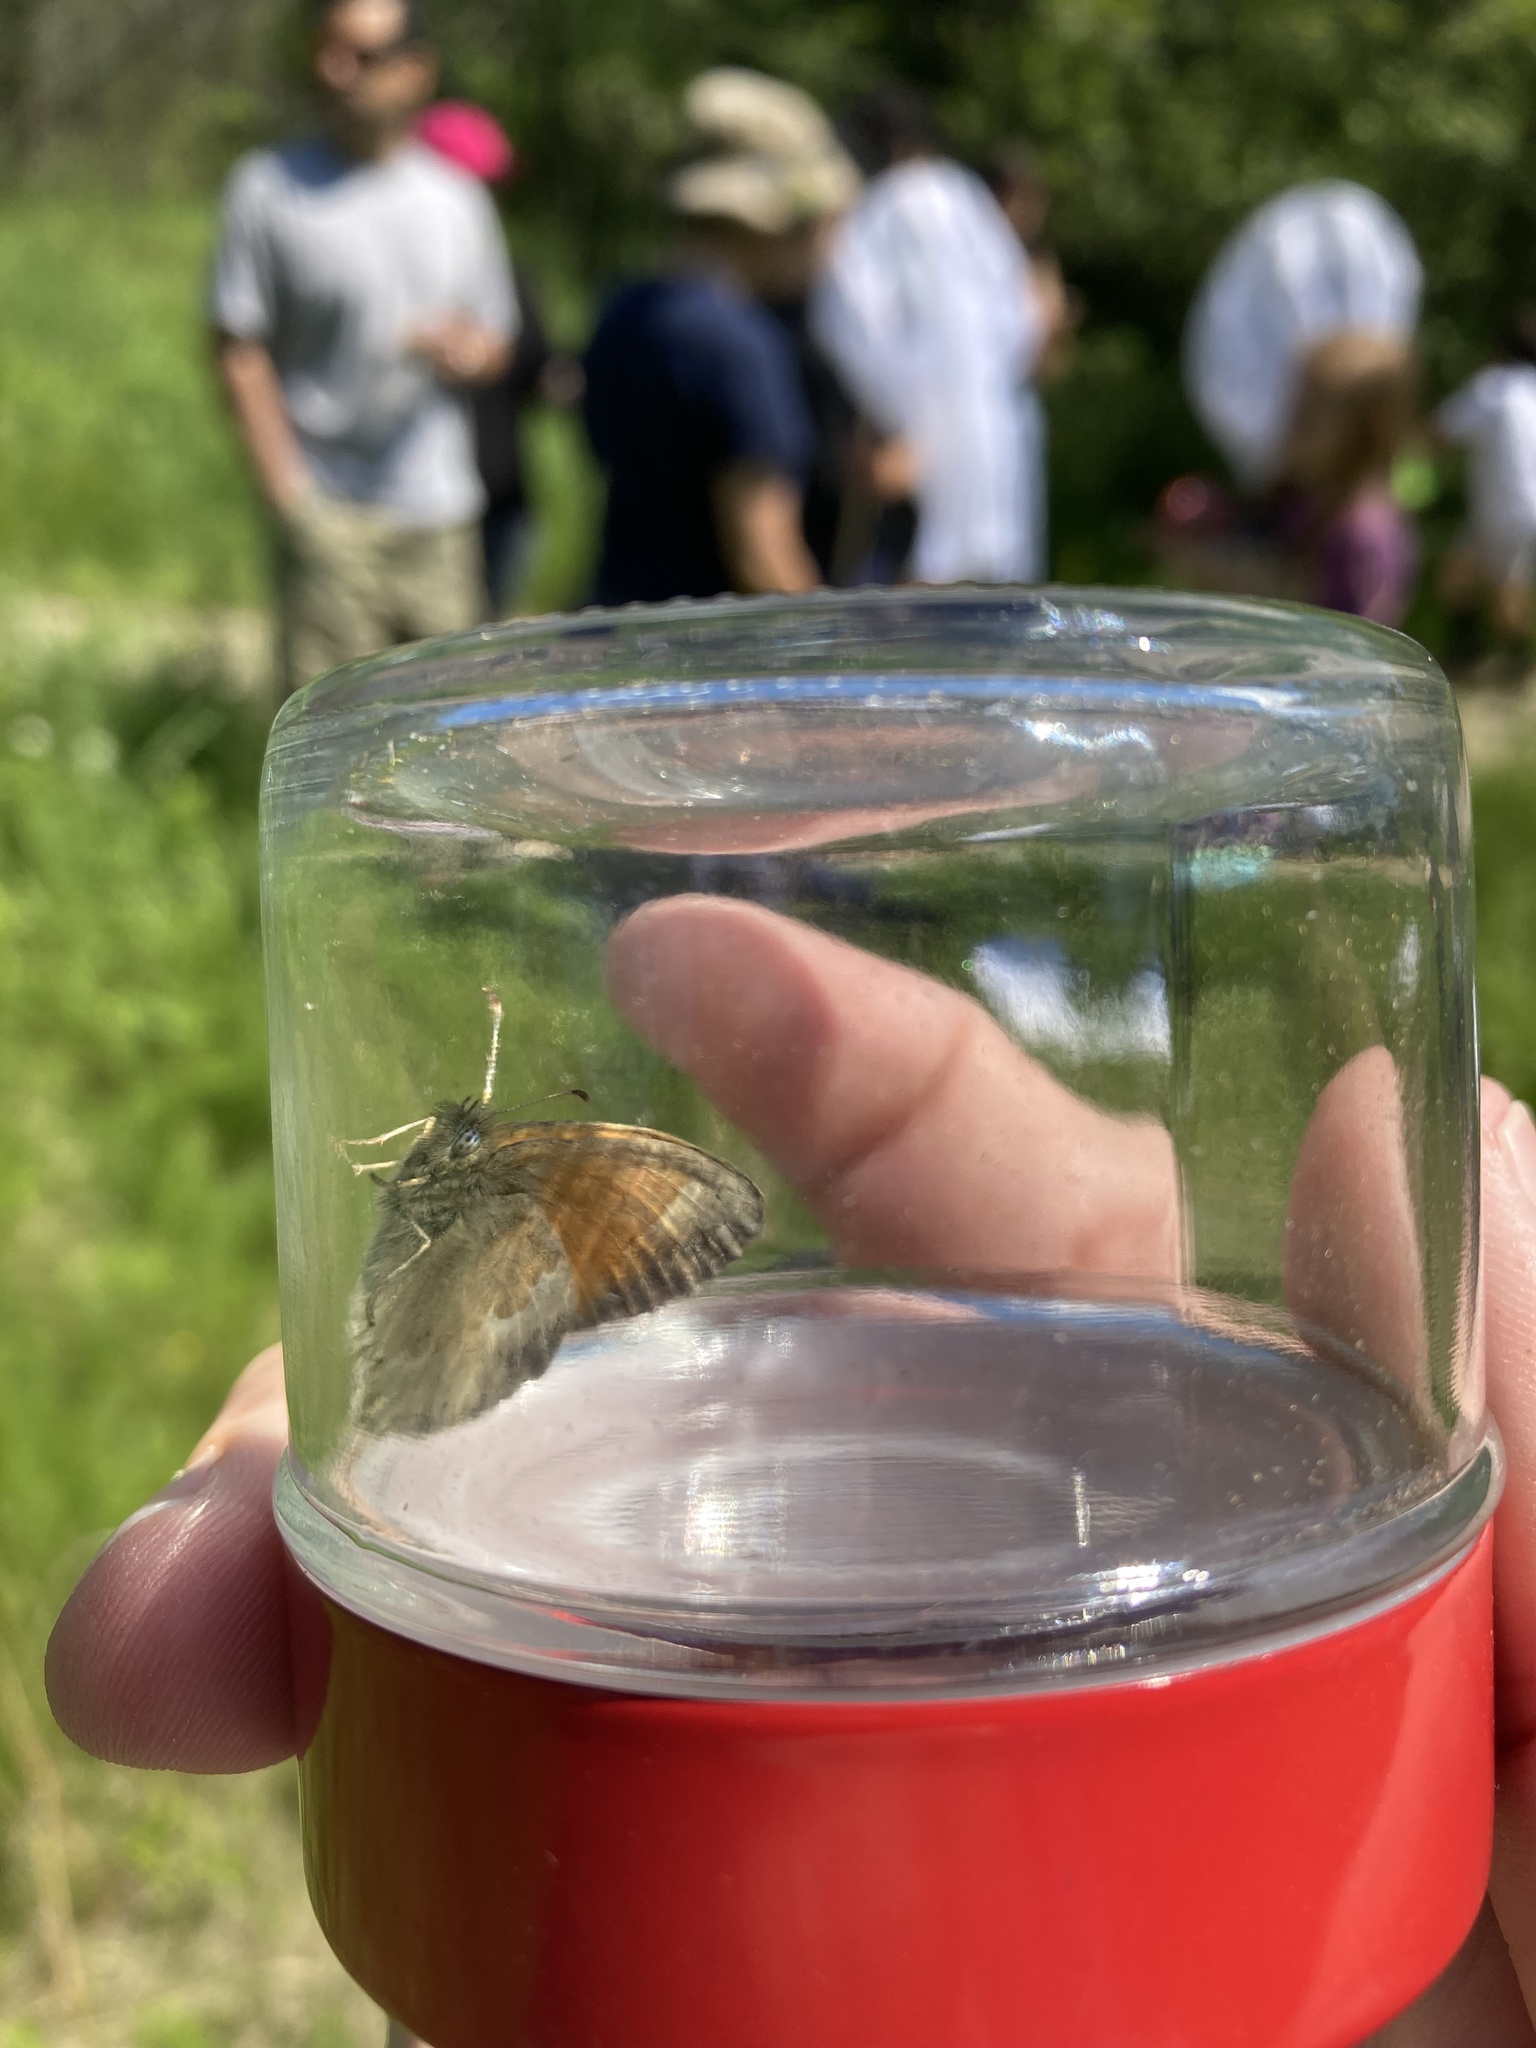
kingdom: Animalia
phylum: Arthropoda
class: Insecta
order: Lepidoptera
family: Nymphalidae
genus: Coenonympha
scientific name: Coenonympha california
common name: Common ringlet
